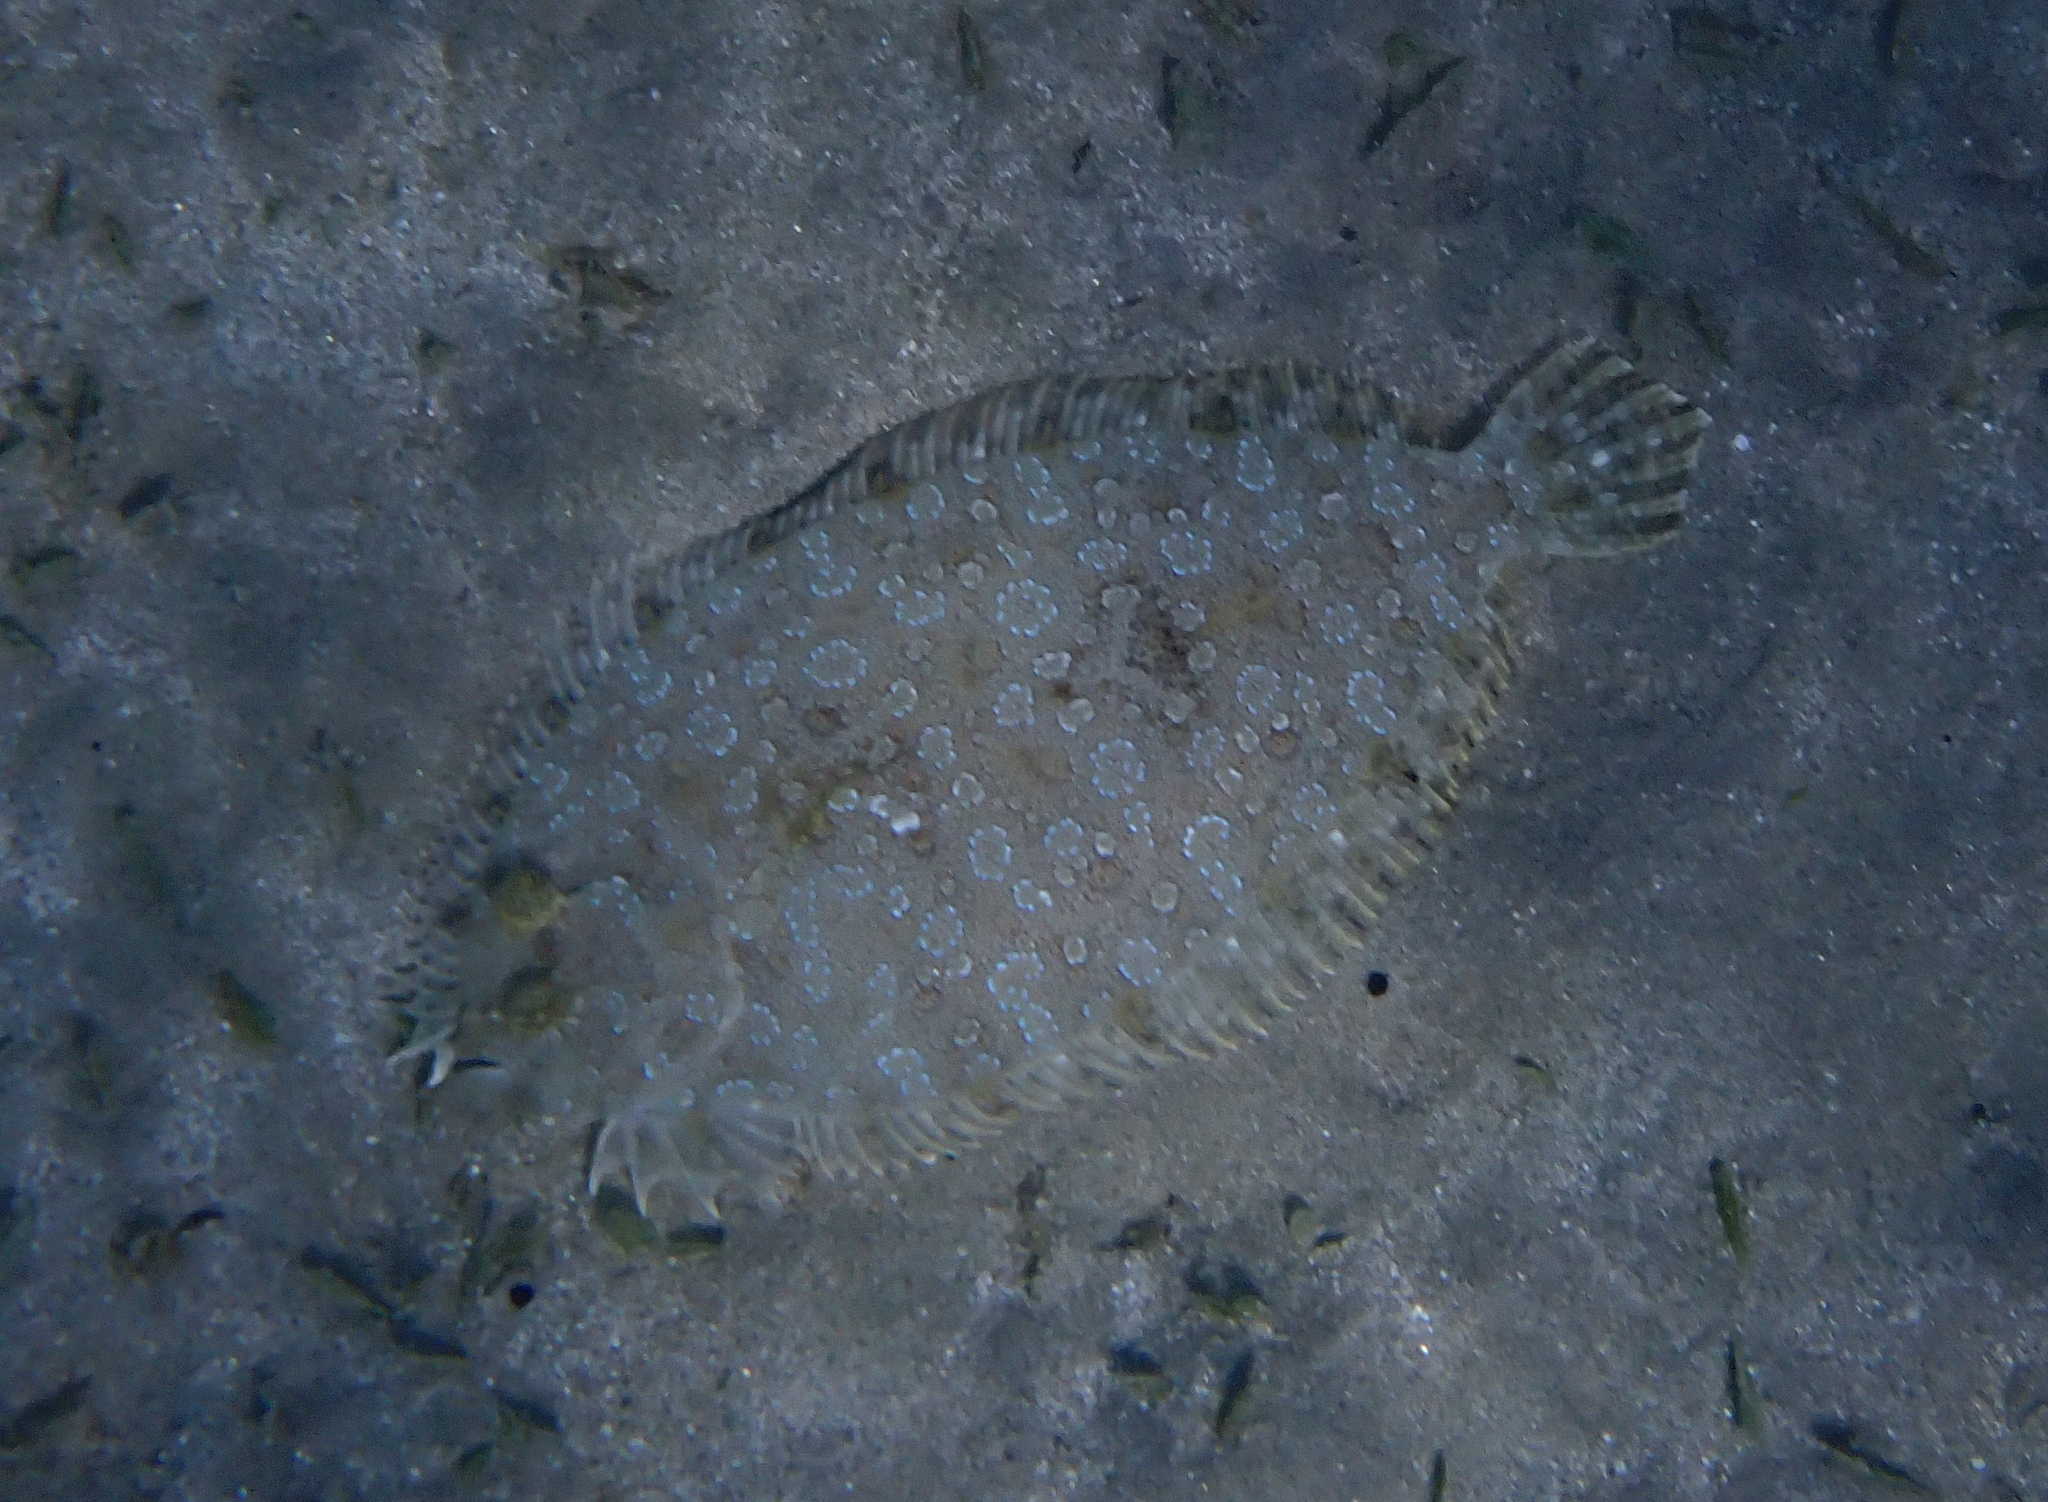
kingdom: Animalia
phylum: Chordata
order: Pleuronectiformes
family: Bothidae
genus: Bothus
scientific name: Bothus pantherinus
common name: Leopard flounder
